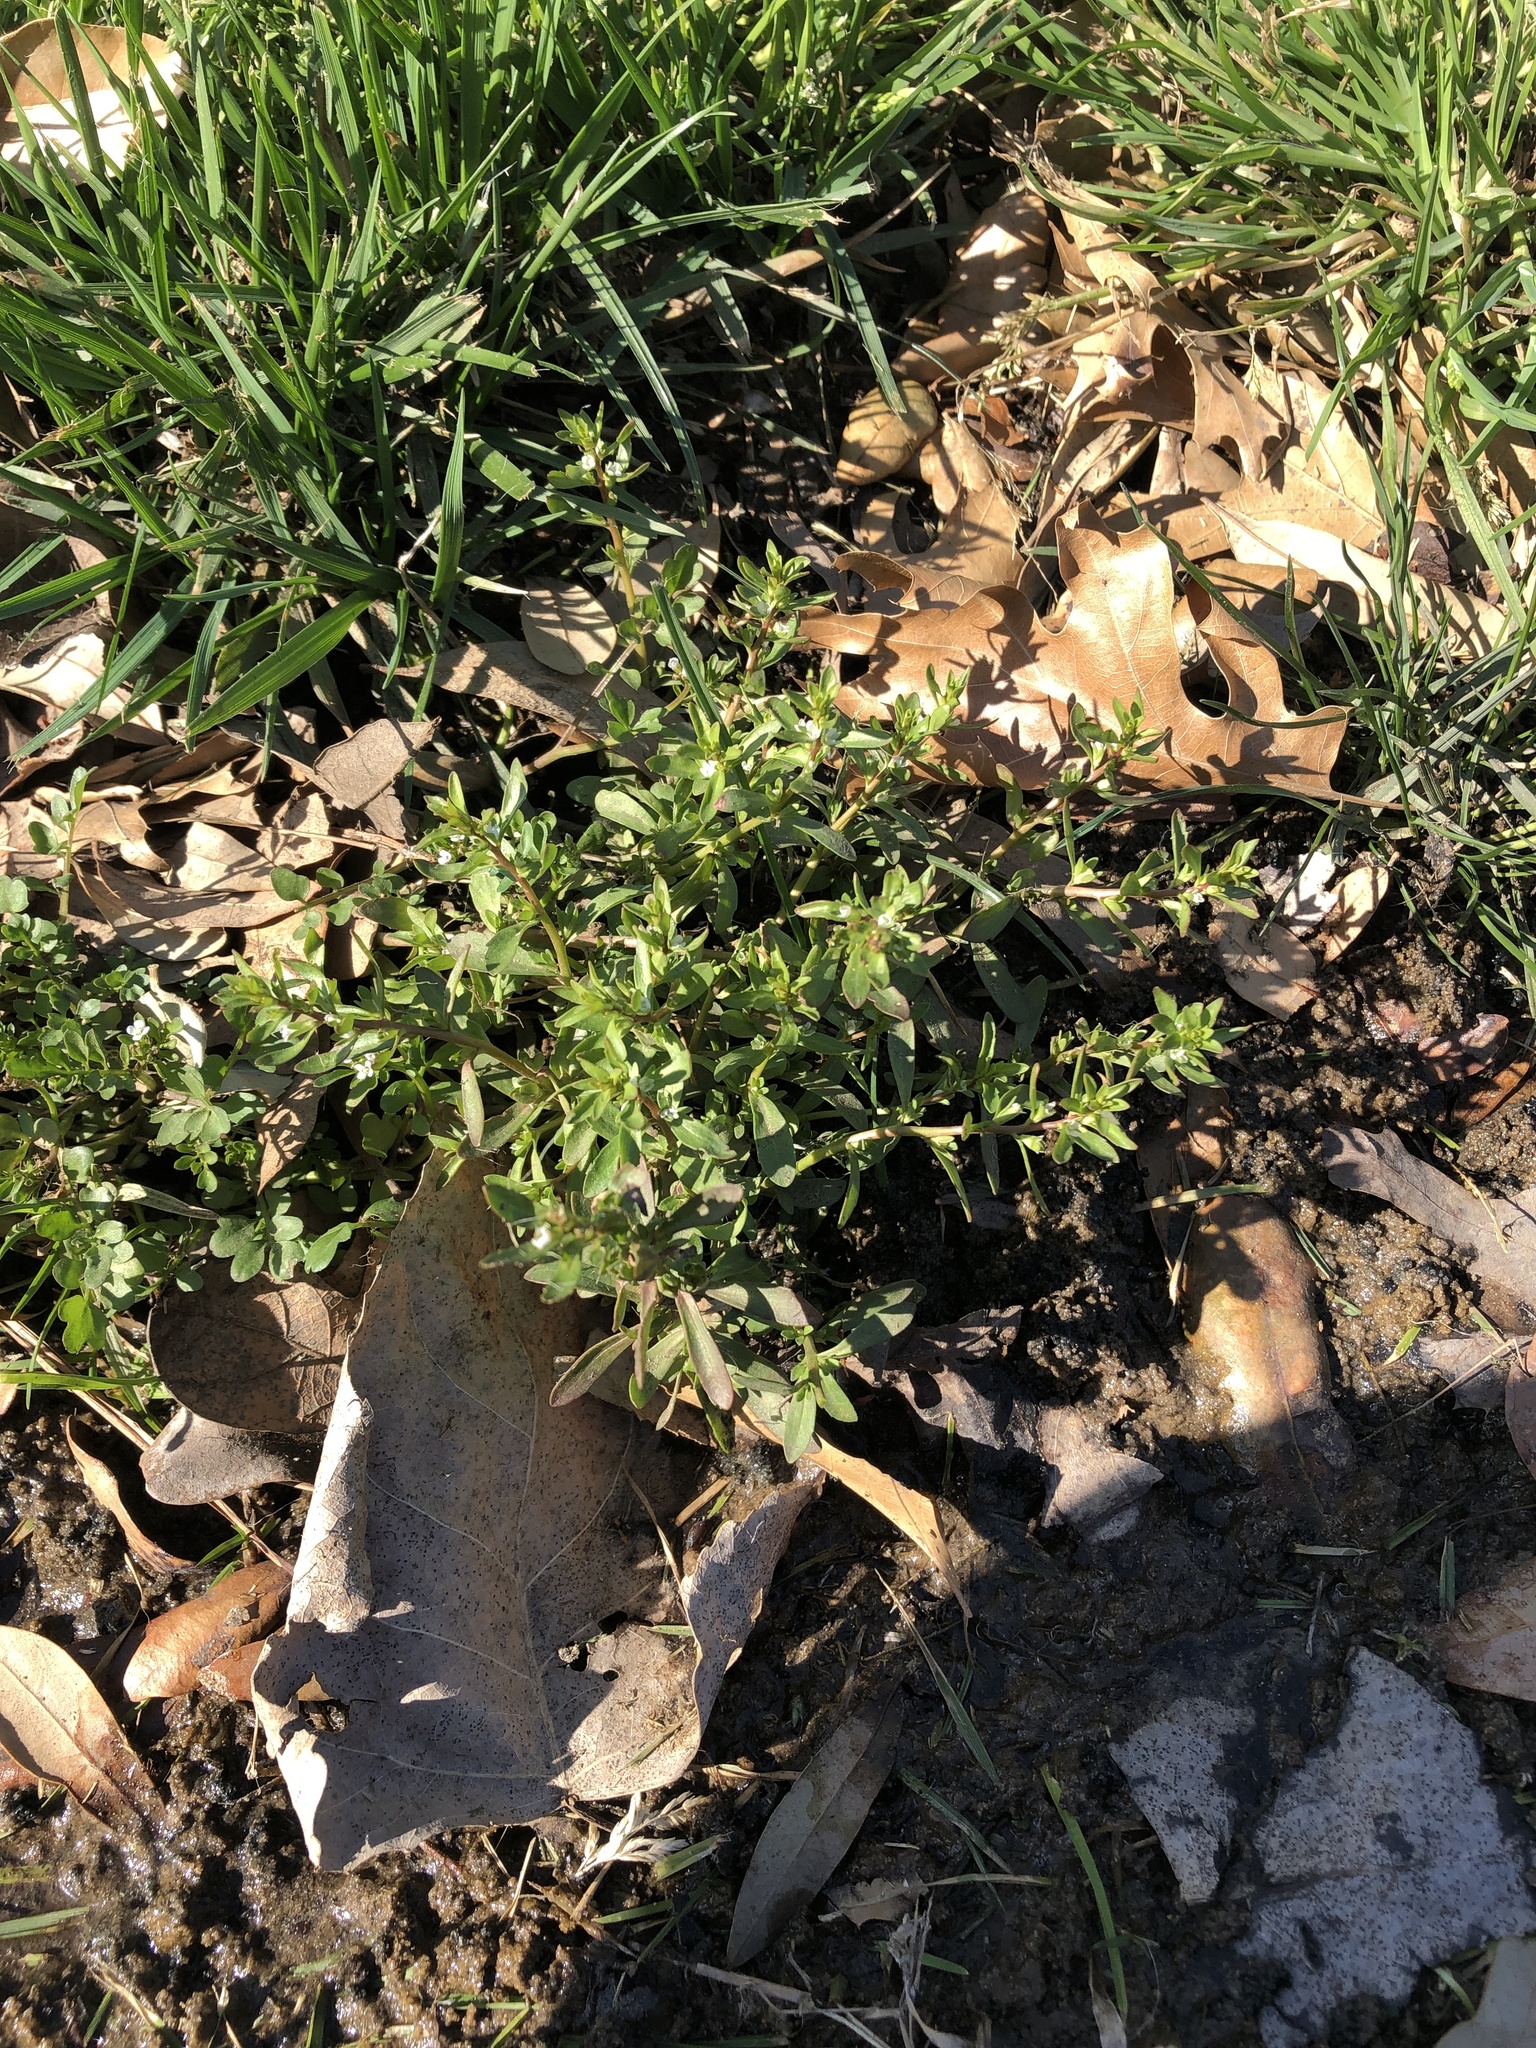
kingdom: Plantae
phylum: Tracheophyta
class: Magnoliopsida
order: Lamiales
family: Plantaginaceae
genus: Veronica
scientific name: Veronica peregrina
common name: Neckweed
